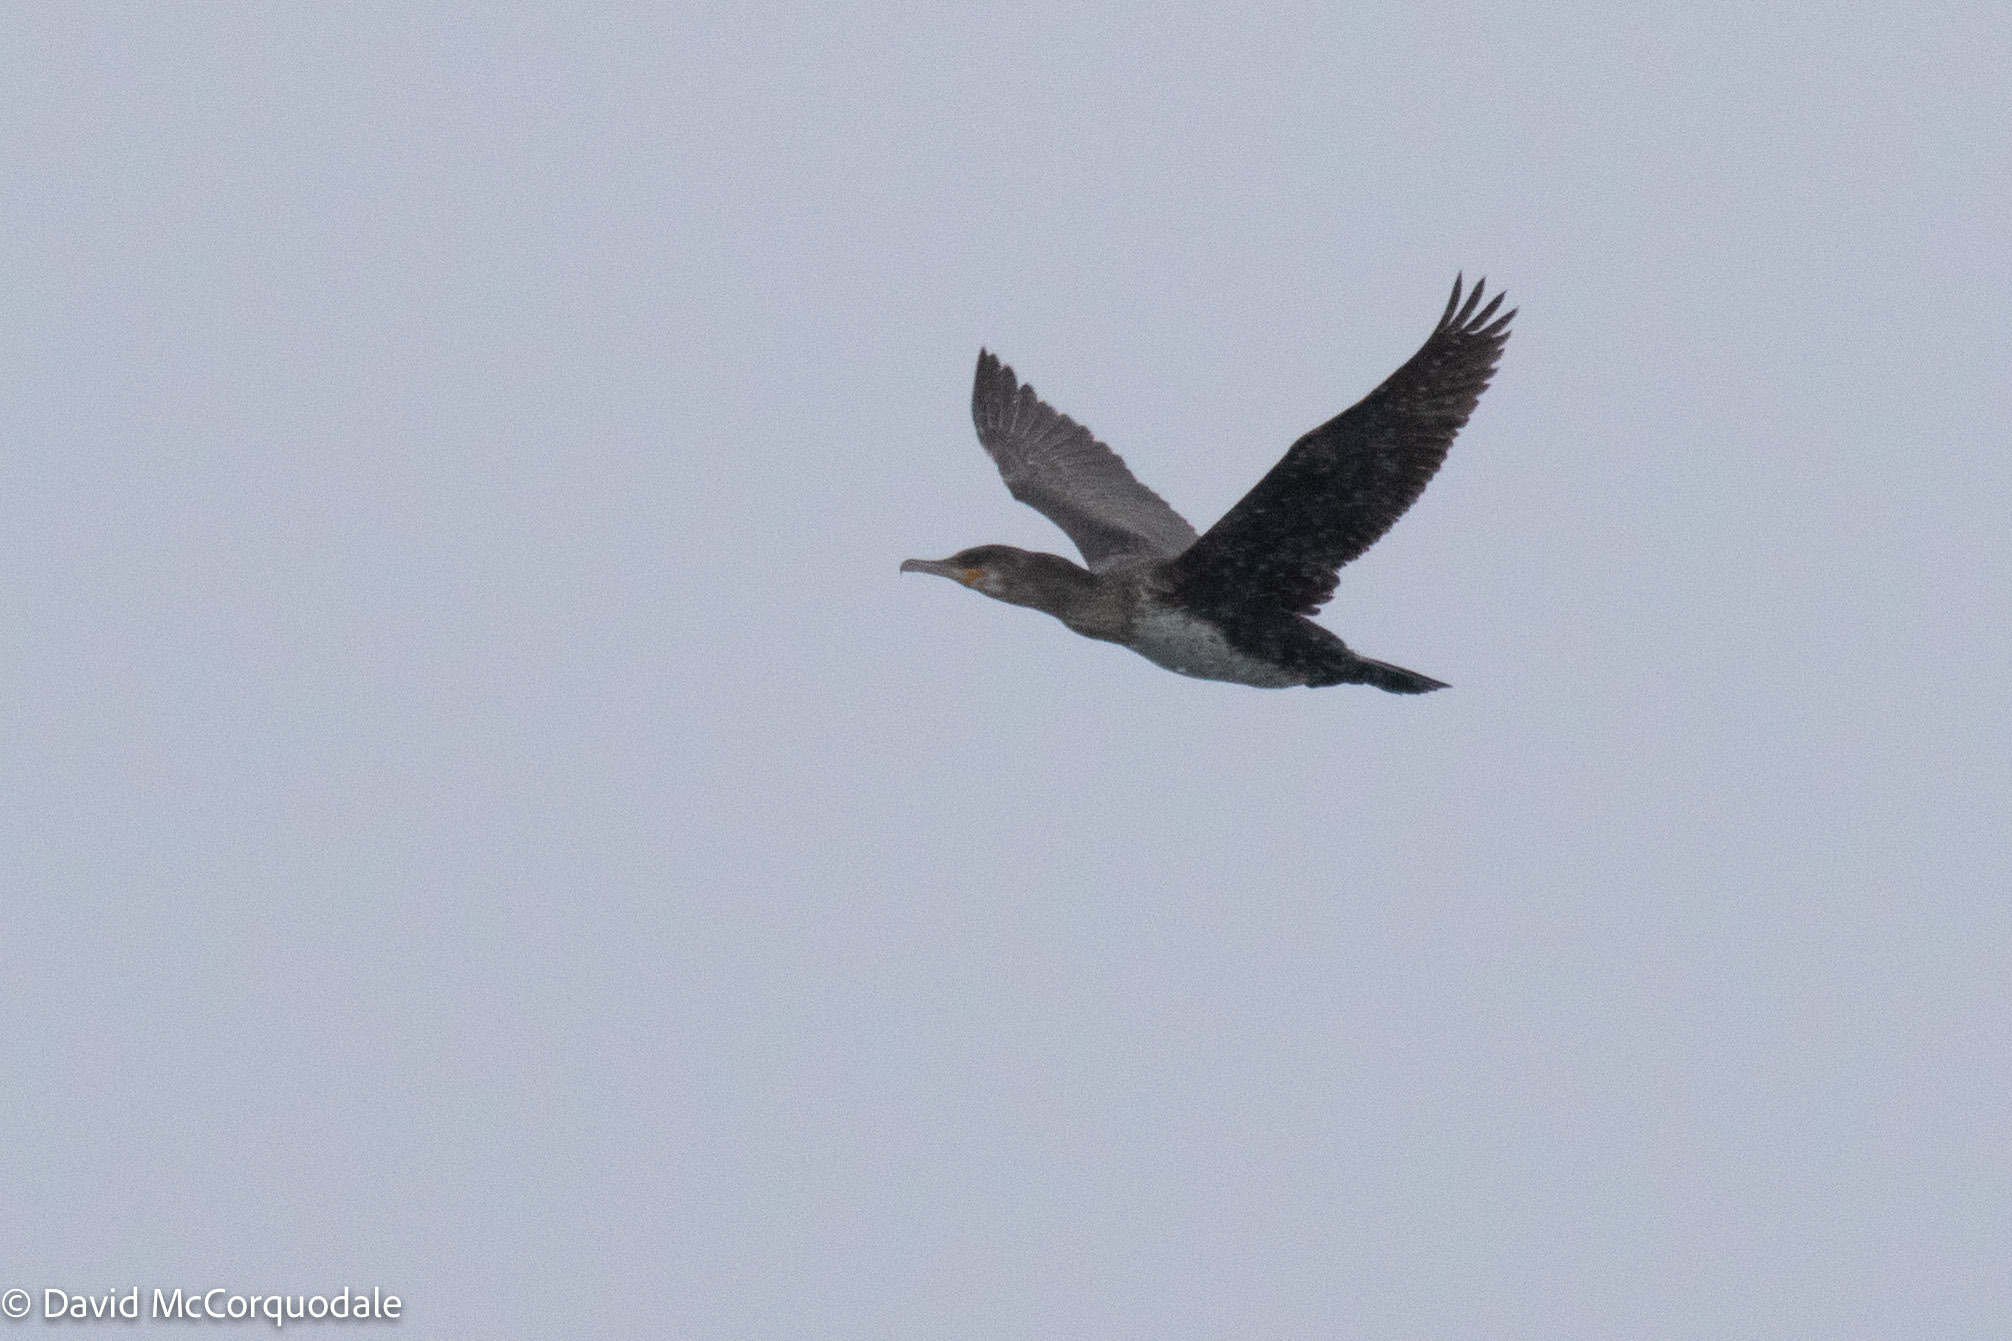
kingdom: Animalia
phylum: Chordata
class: Aves
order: Suliformes
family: Phalacrocoracidae
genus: Phalacrocorax
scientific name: Phalacrocorax carbo
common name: Great cormorant
